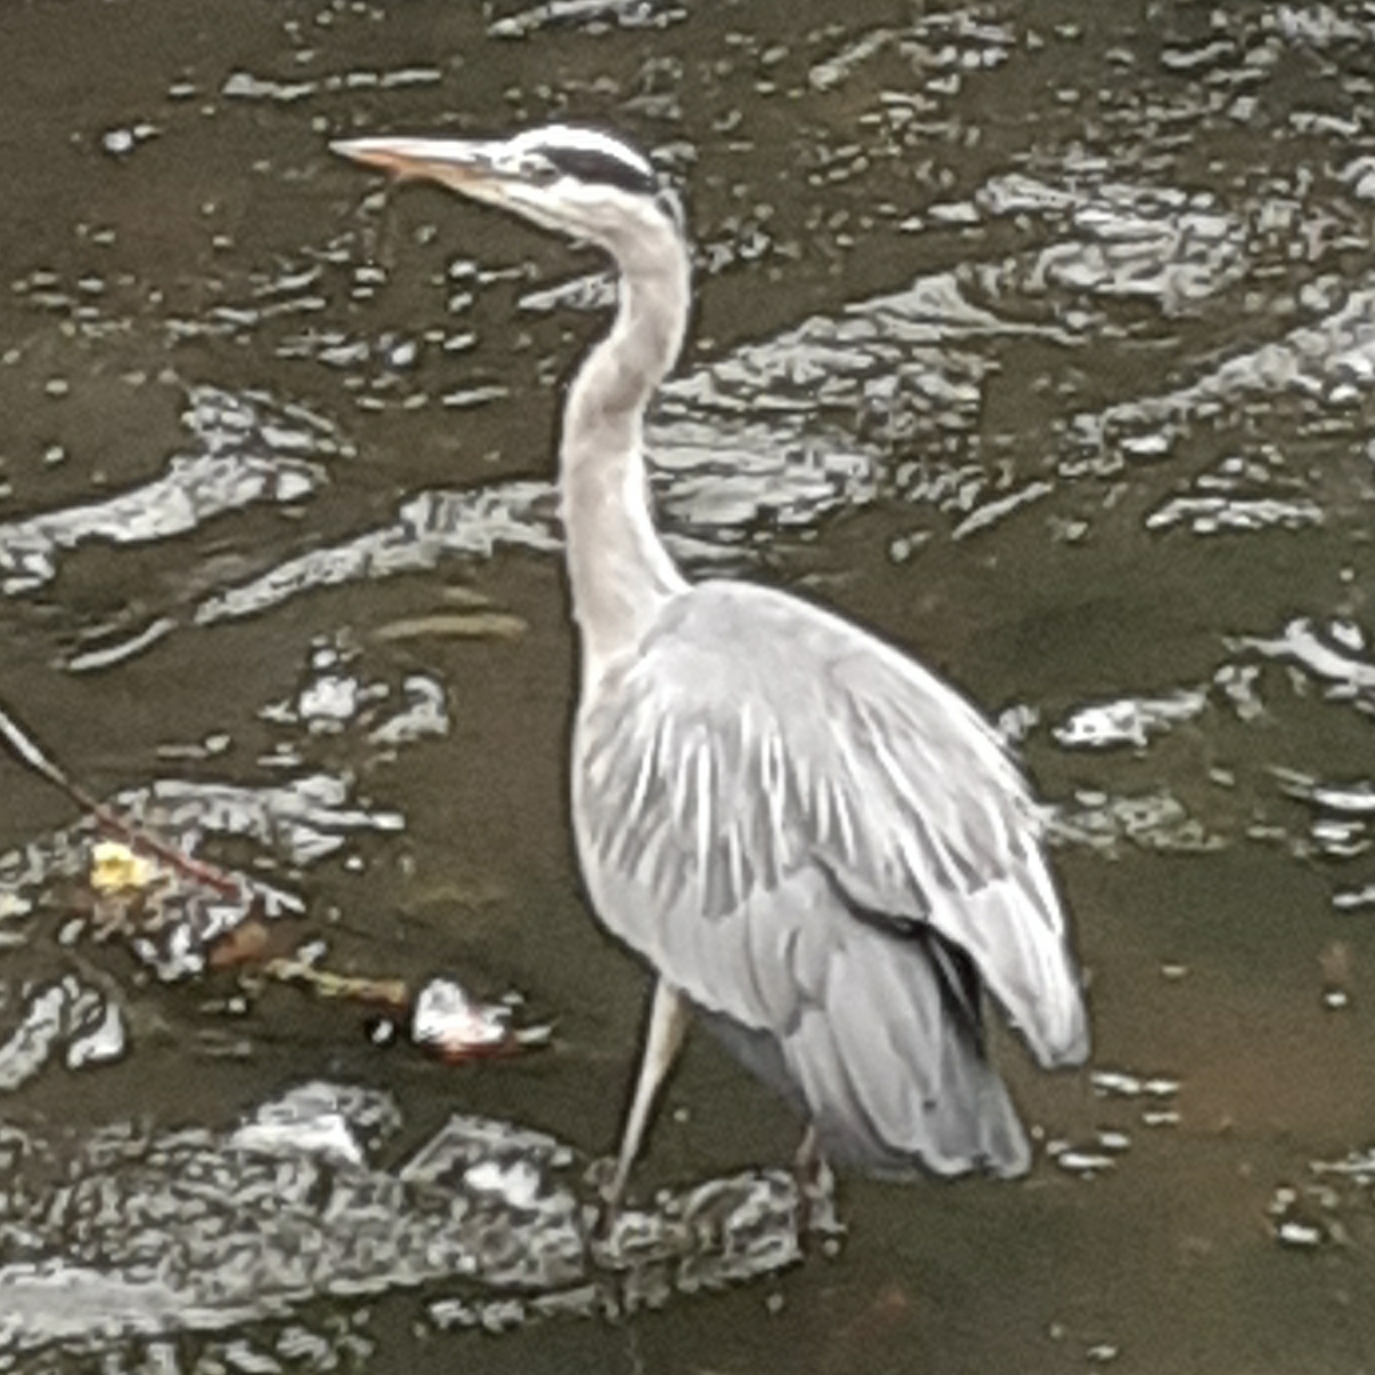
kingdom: Animalia
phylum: Chordata
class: Aves
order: Pelecaniformes
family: Ardeidae
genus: Ardea
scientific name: Ardea cinerea
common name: Grey heron
